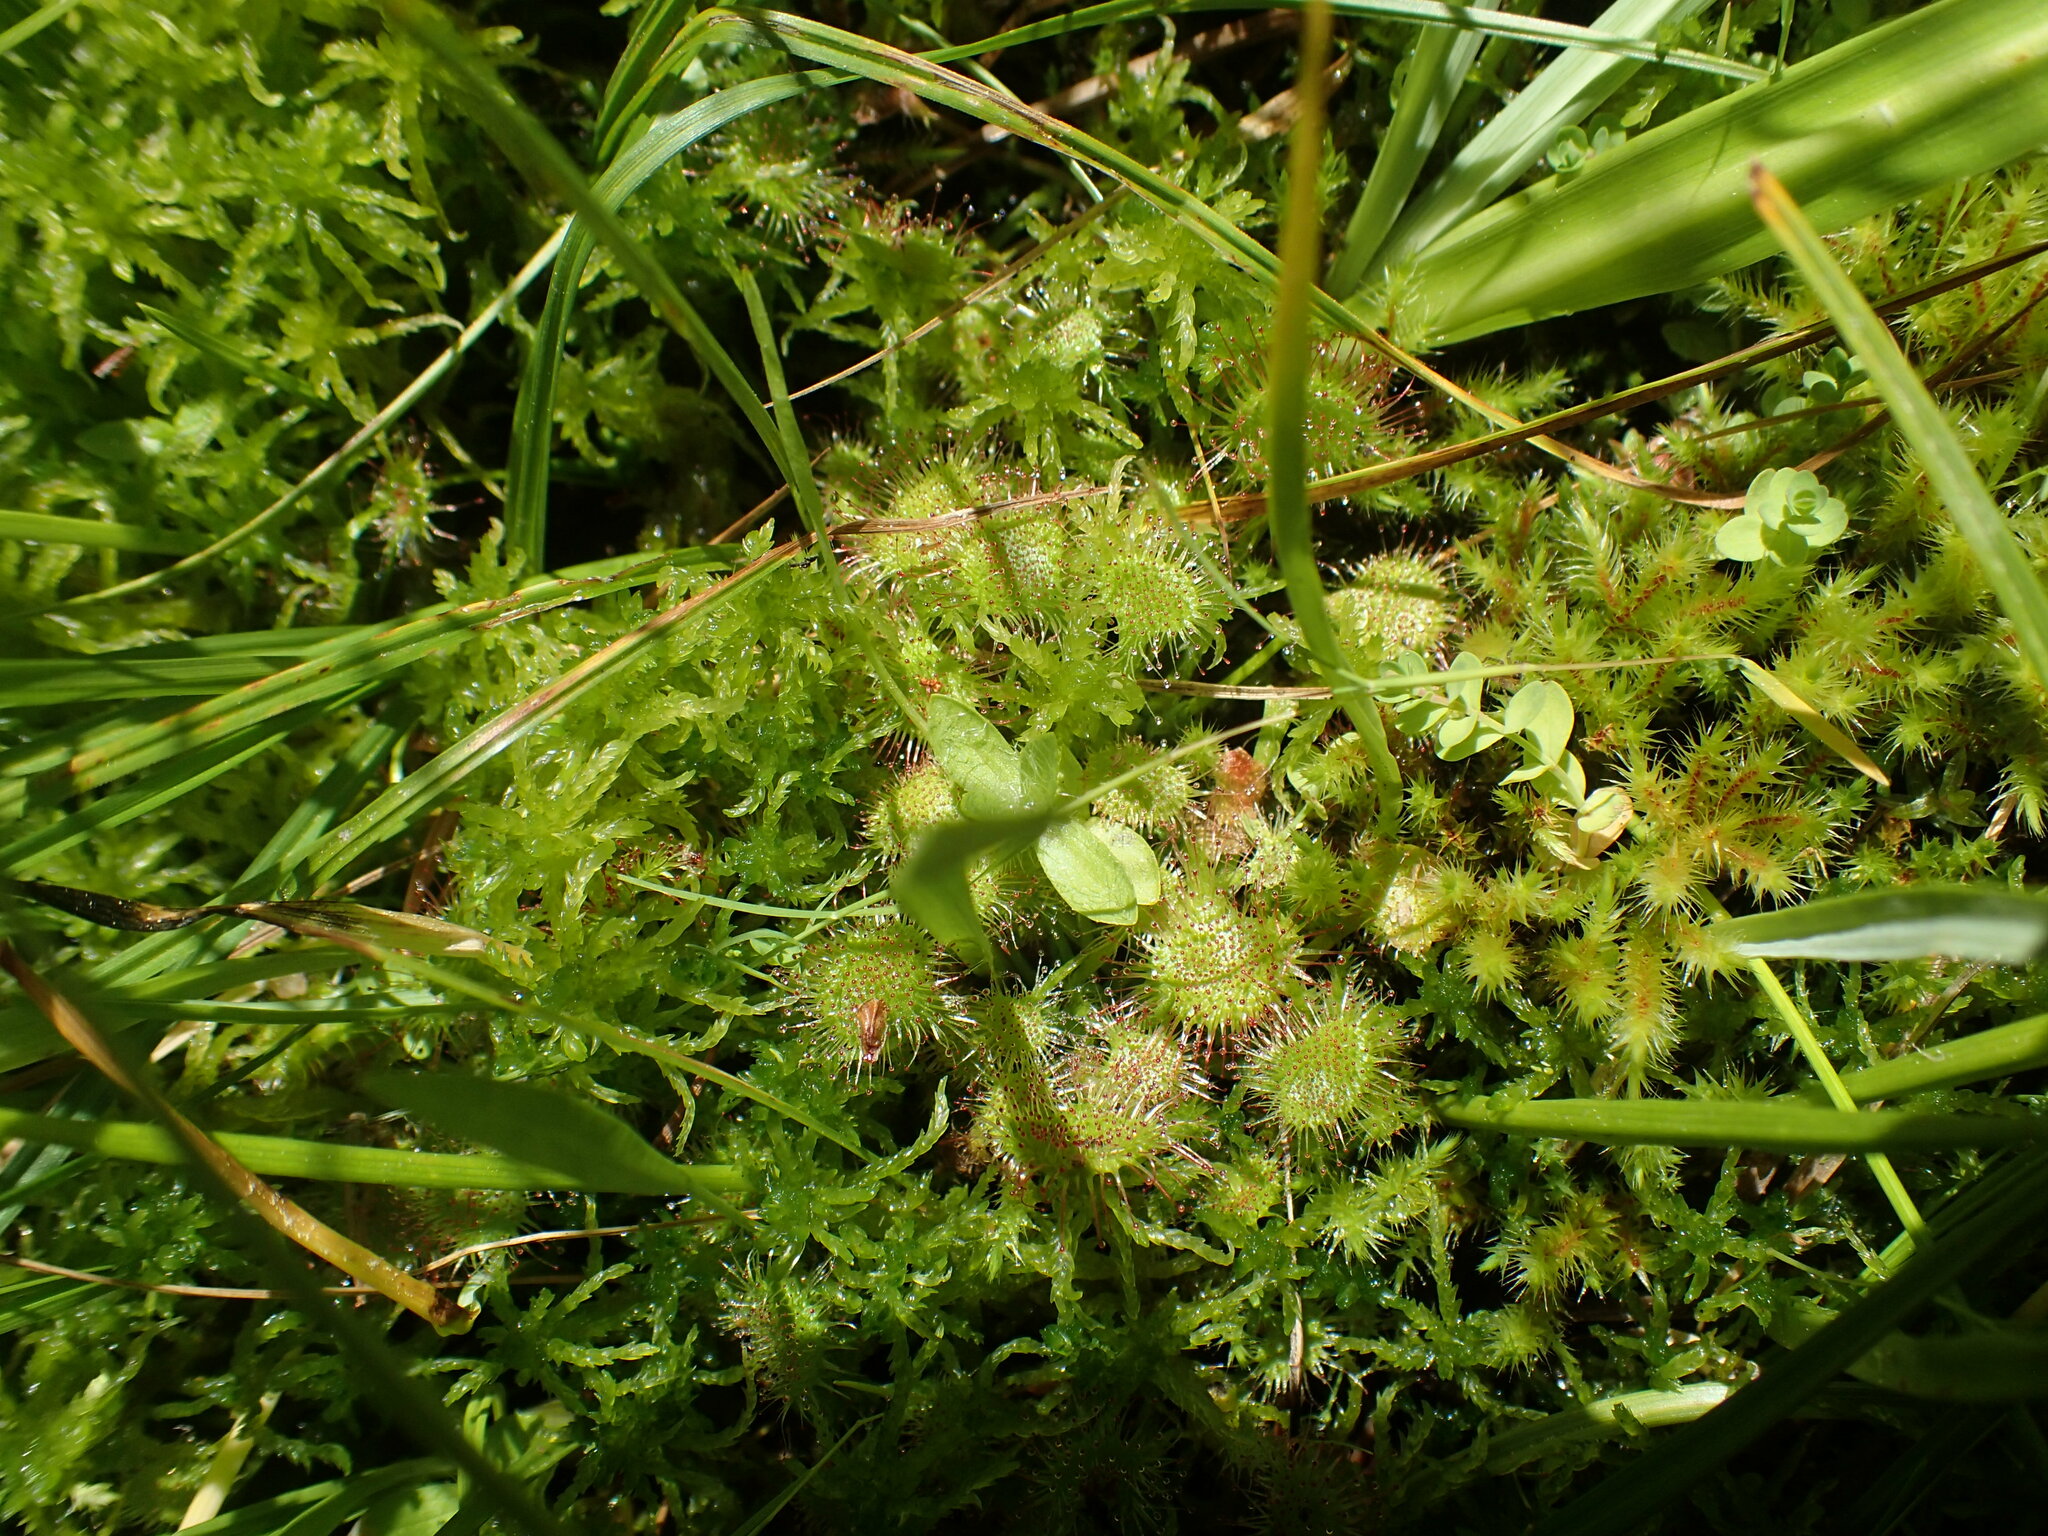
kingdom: Plantae
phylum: Tracheophyta
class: Magnoliopsida
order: Caryophyllales
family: Droseraceae
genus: Drosera
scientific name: Drosera rotundifolia
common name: Round-leaved sundew
